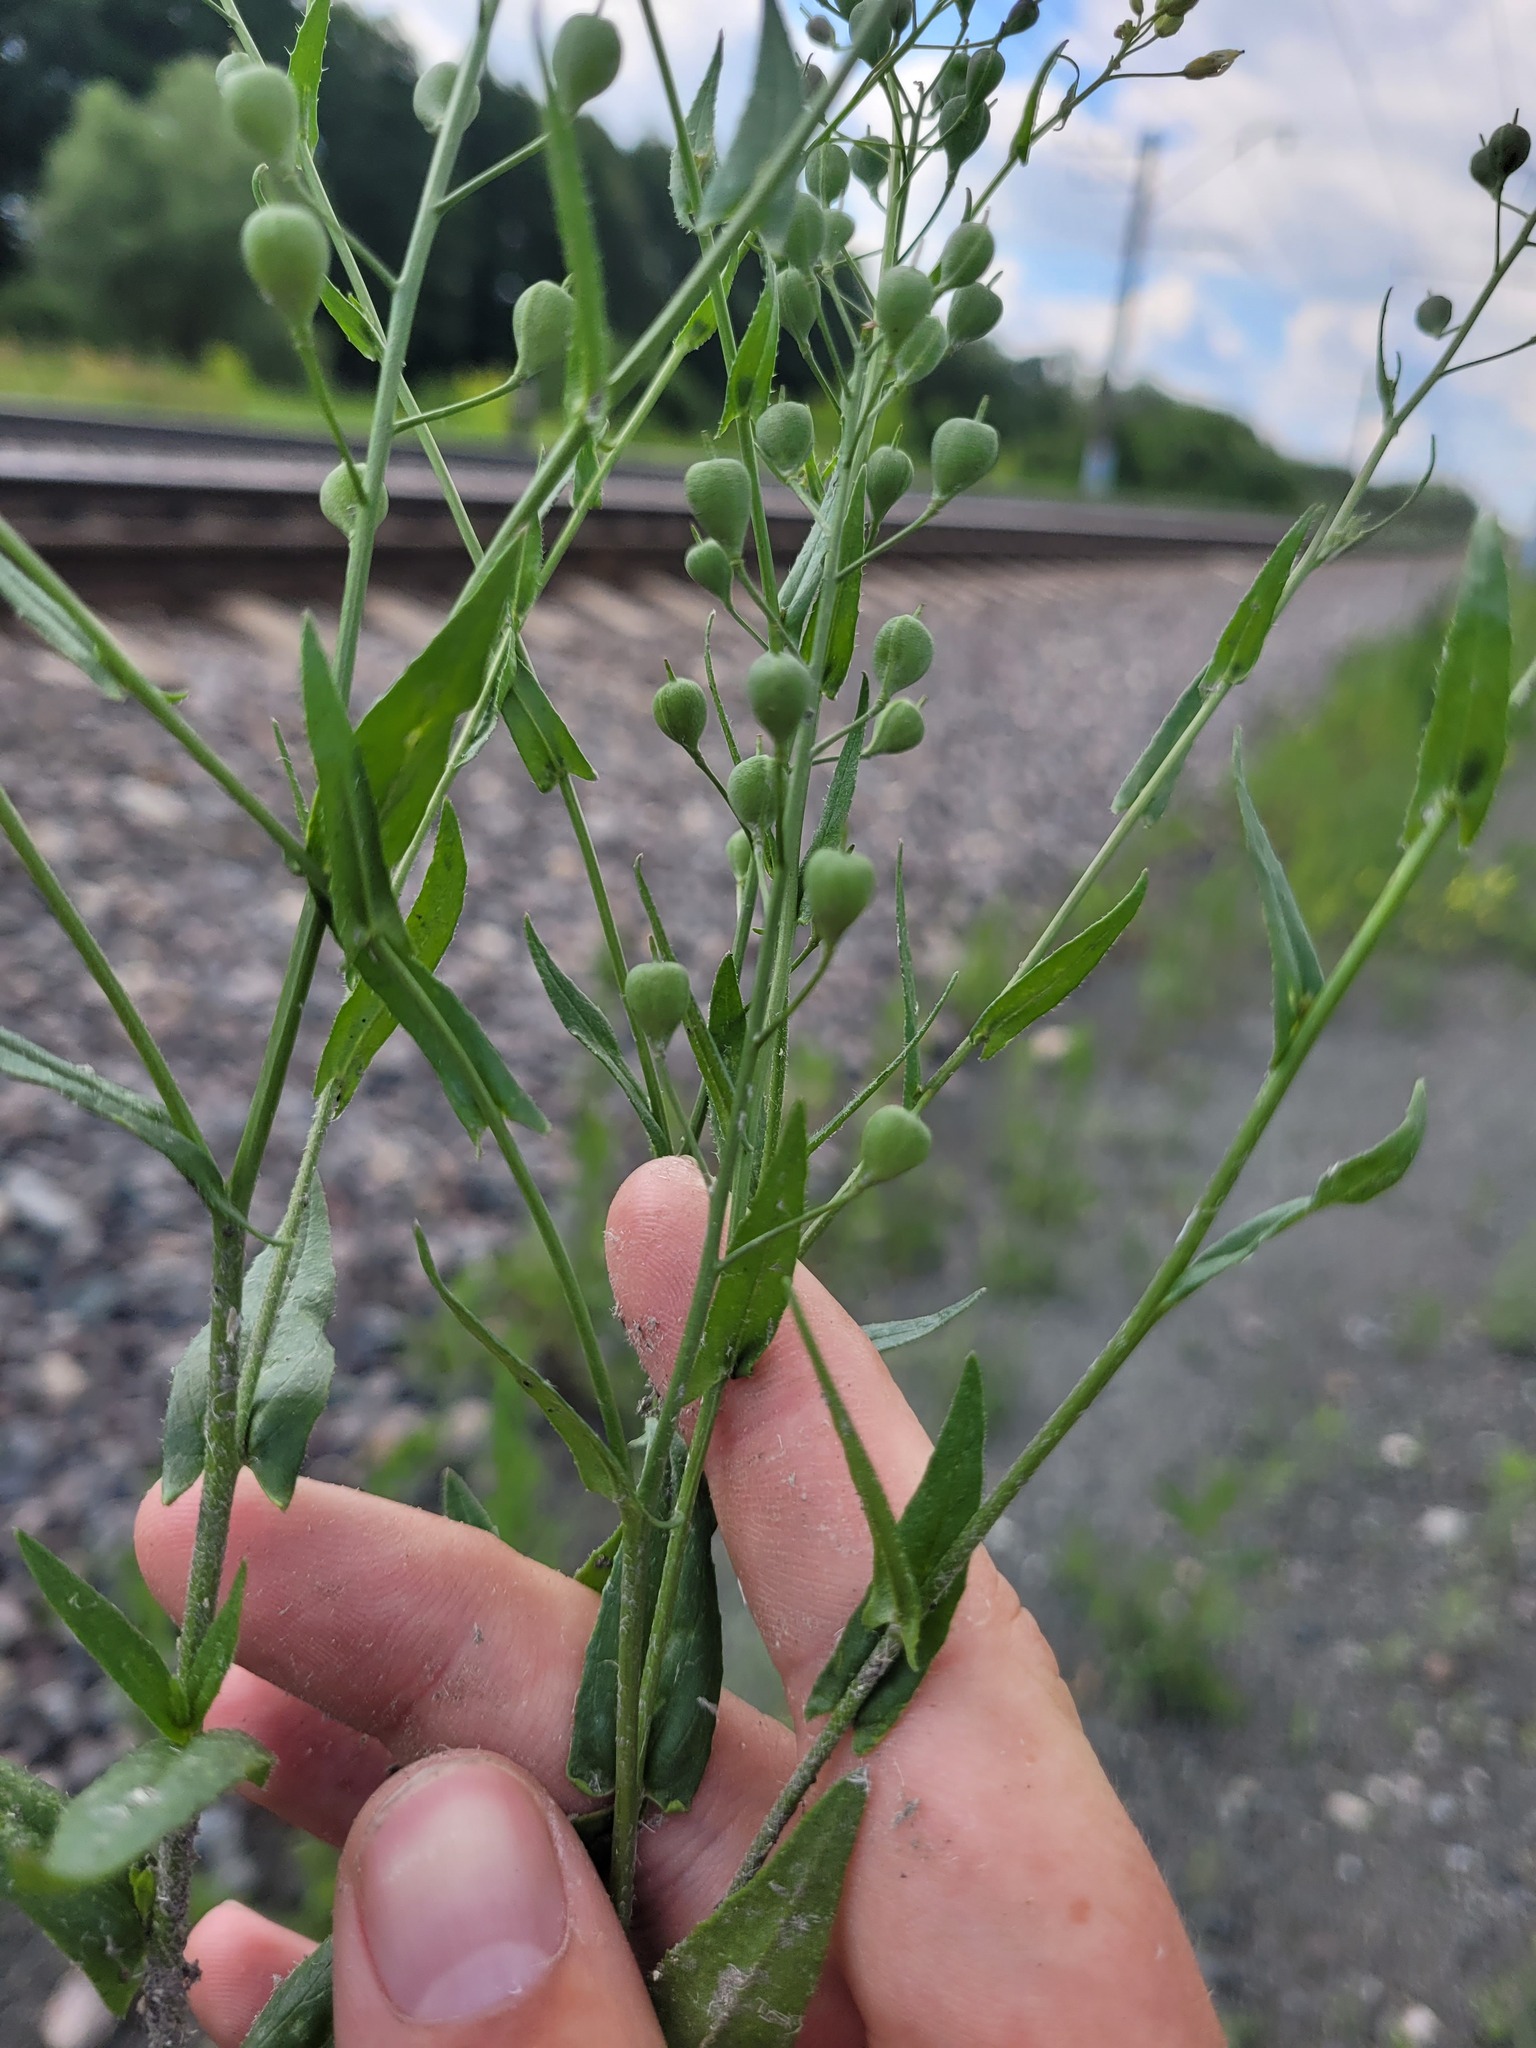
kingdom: Plantae
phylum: Tracheophyta
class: Magnoliopsida
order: Brassicales
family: Brassicaceae
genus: Camelina
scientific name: Camelina sativa
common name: Gold-of-pleasure
